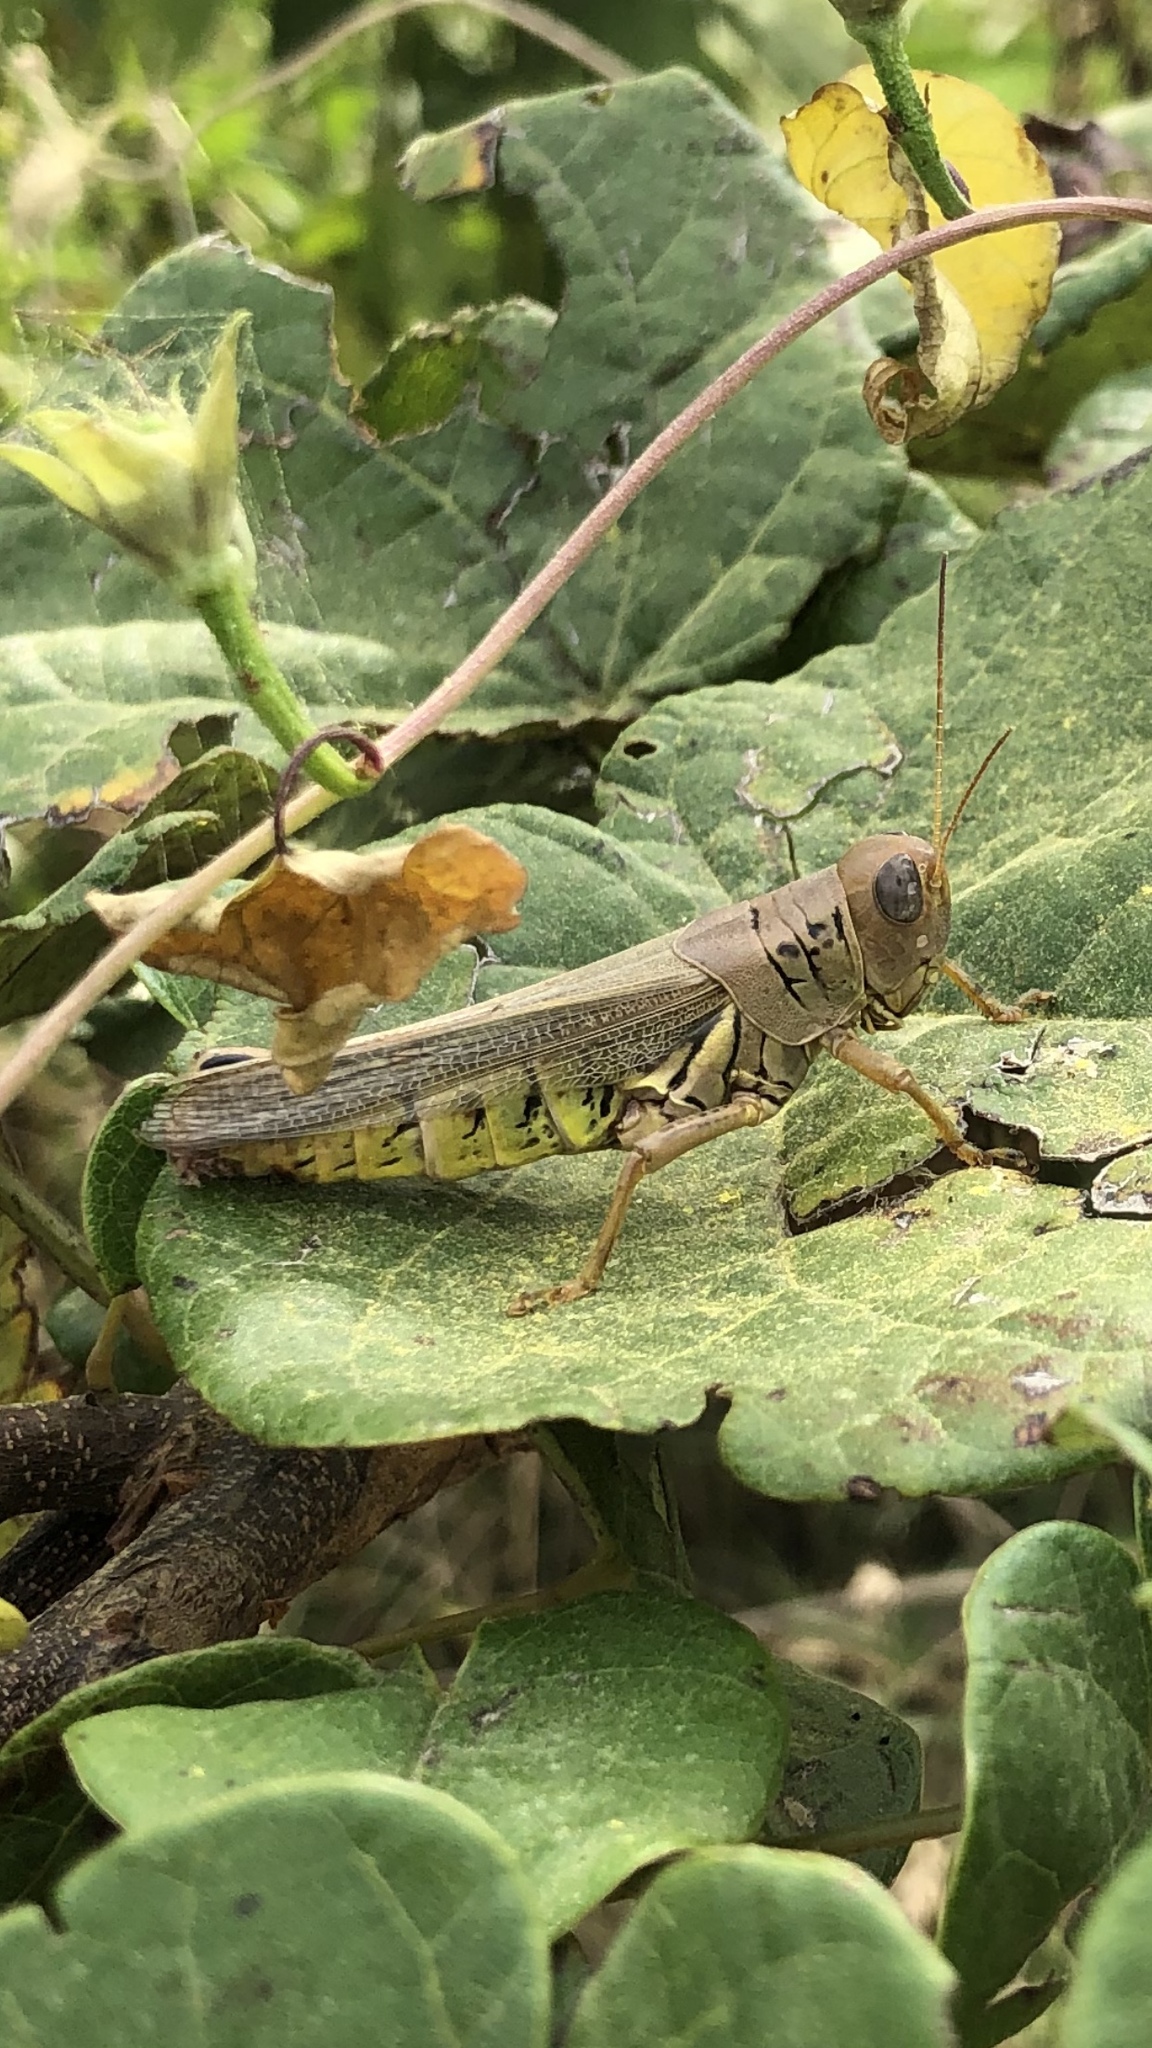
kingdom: Animalia
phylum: Arthropoda
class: Insecta
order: Orthoptera
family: Acrididae
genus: Melanoplus
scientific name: Melanoplus differentialis
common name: Differential grasshopper
